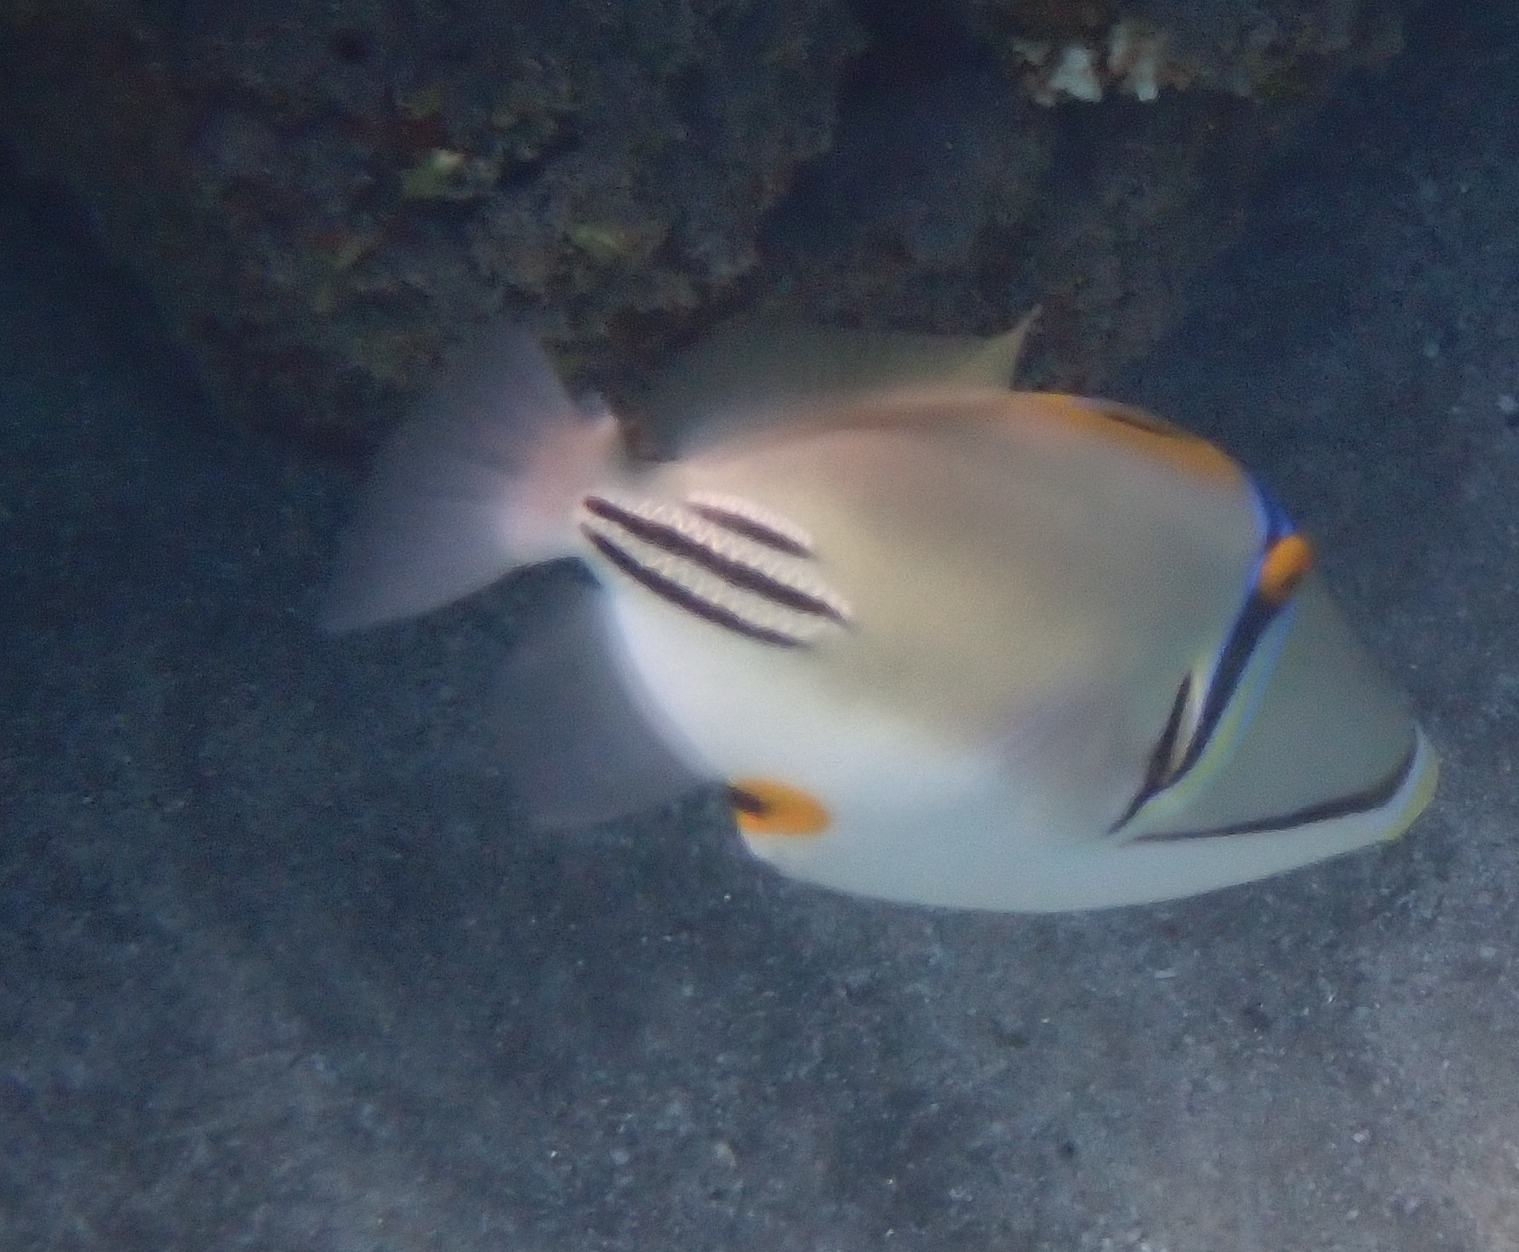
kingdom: Animalia
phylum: Chordata
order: Tetraodontiformes
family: Balistidae
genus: Rhinecanthus
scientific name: Rhinecanthus assasi
